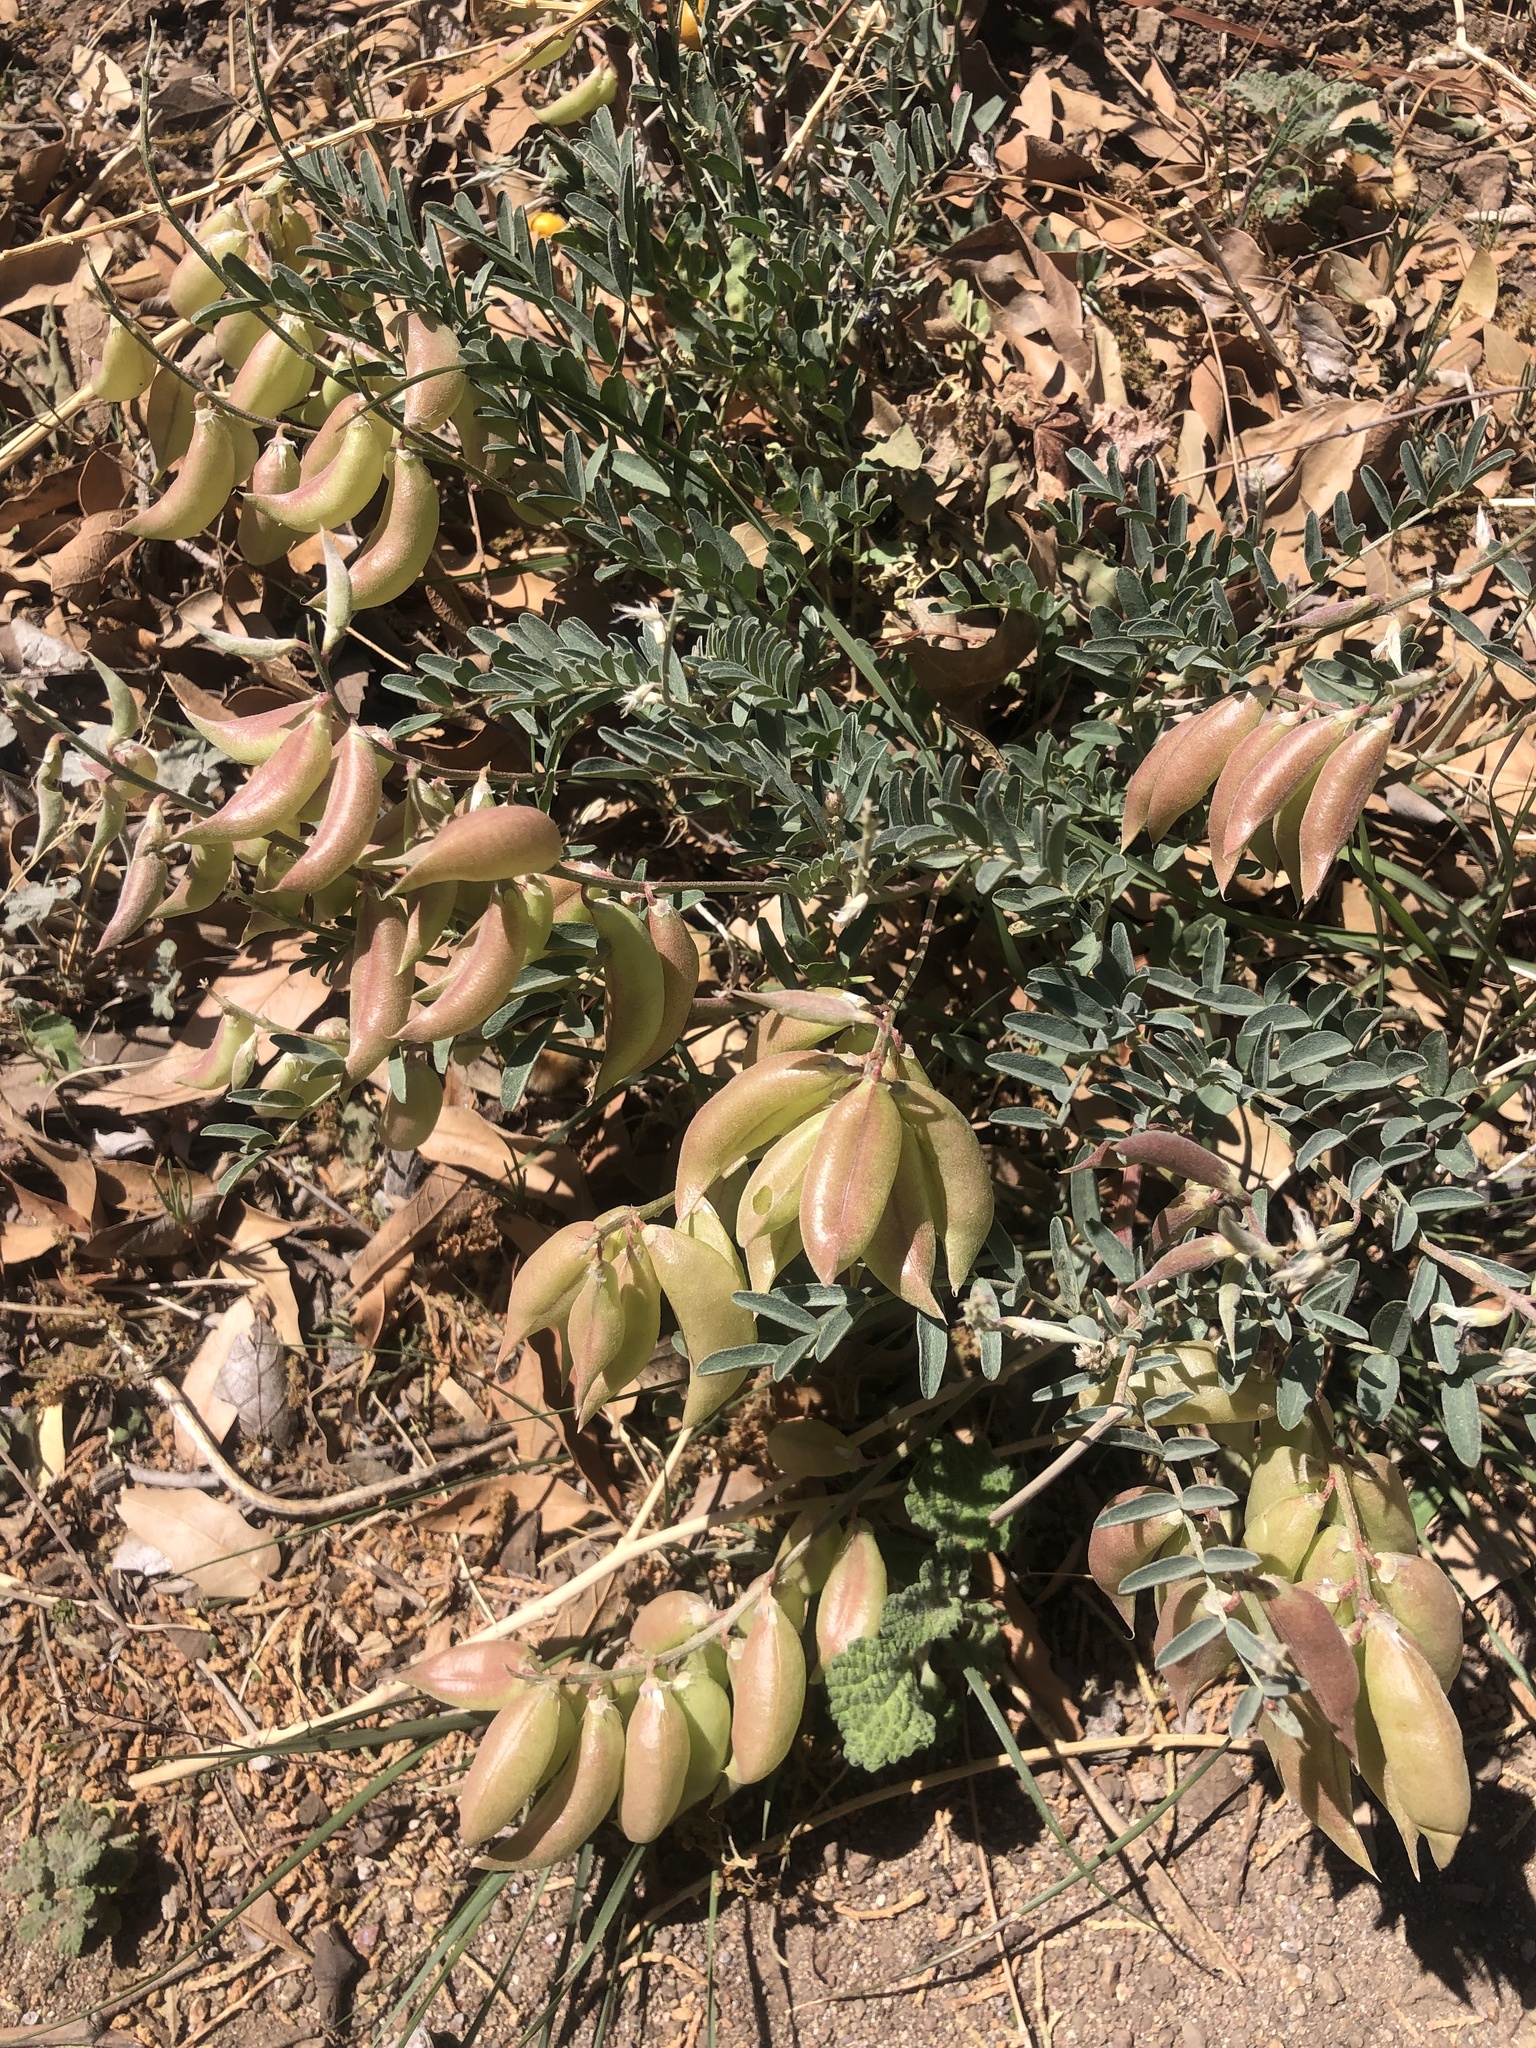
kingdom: Plantae
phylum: Tracheophyta
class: Magnoliopsida
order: Fabales
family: Fabaceae
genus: Astragalus
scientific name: Astragalus allochrous
